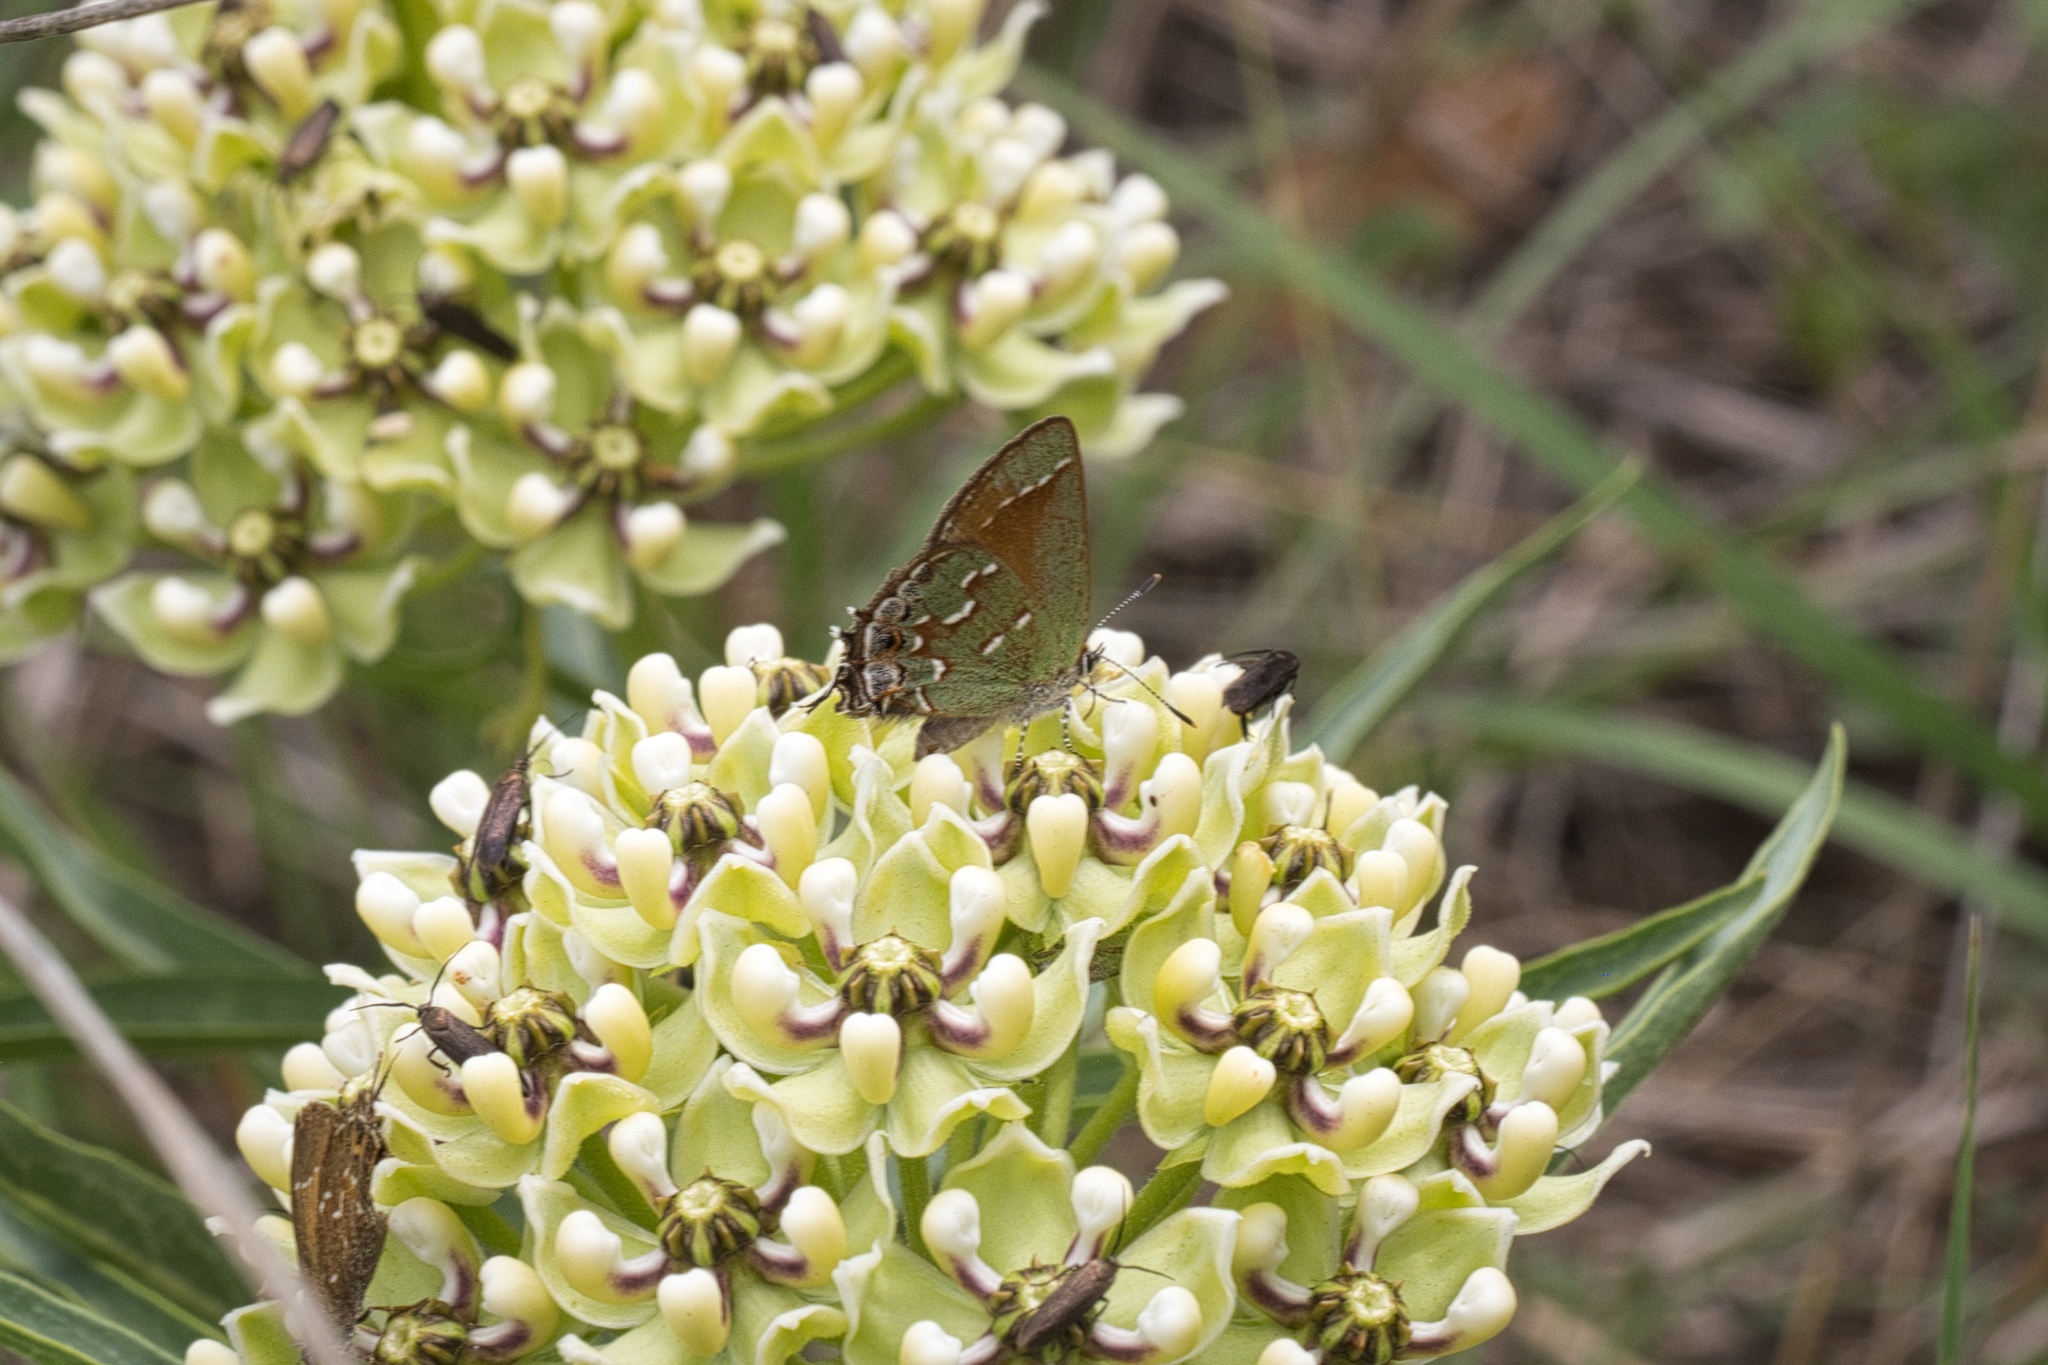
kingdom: Animalia
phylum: Arthropoda
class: Insecta
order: Lepidoptera
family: Lycaenidae
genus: Mitoura
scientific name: Mitoura gryneus
